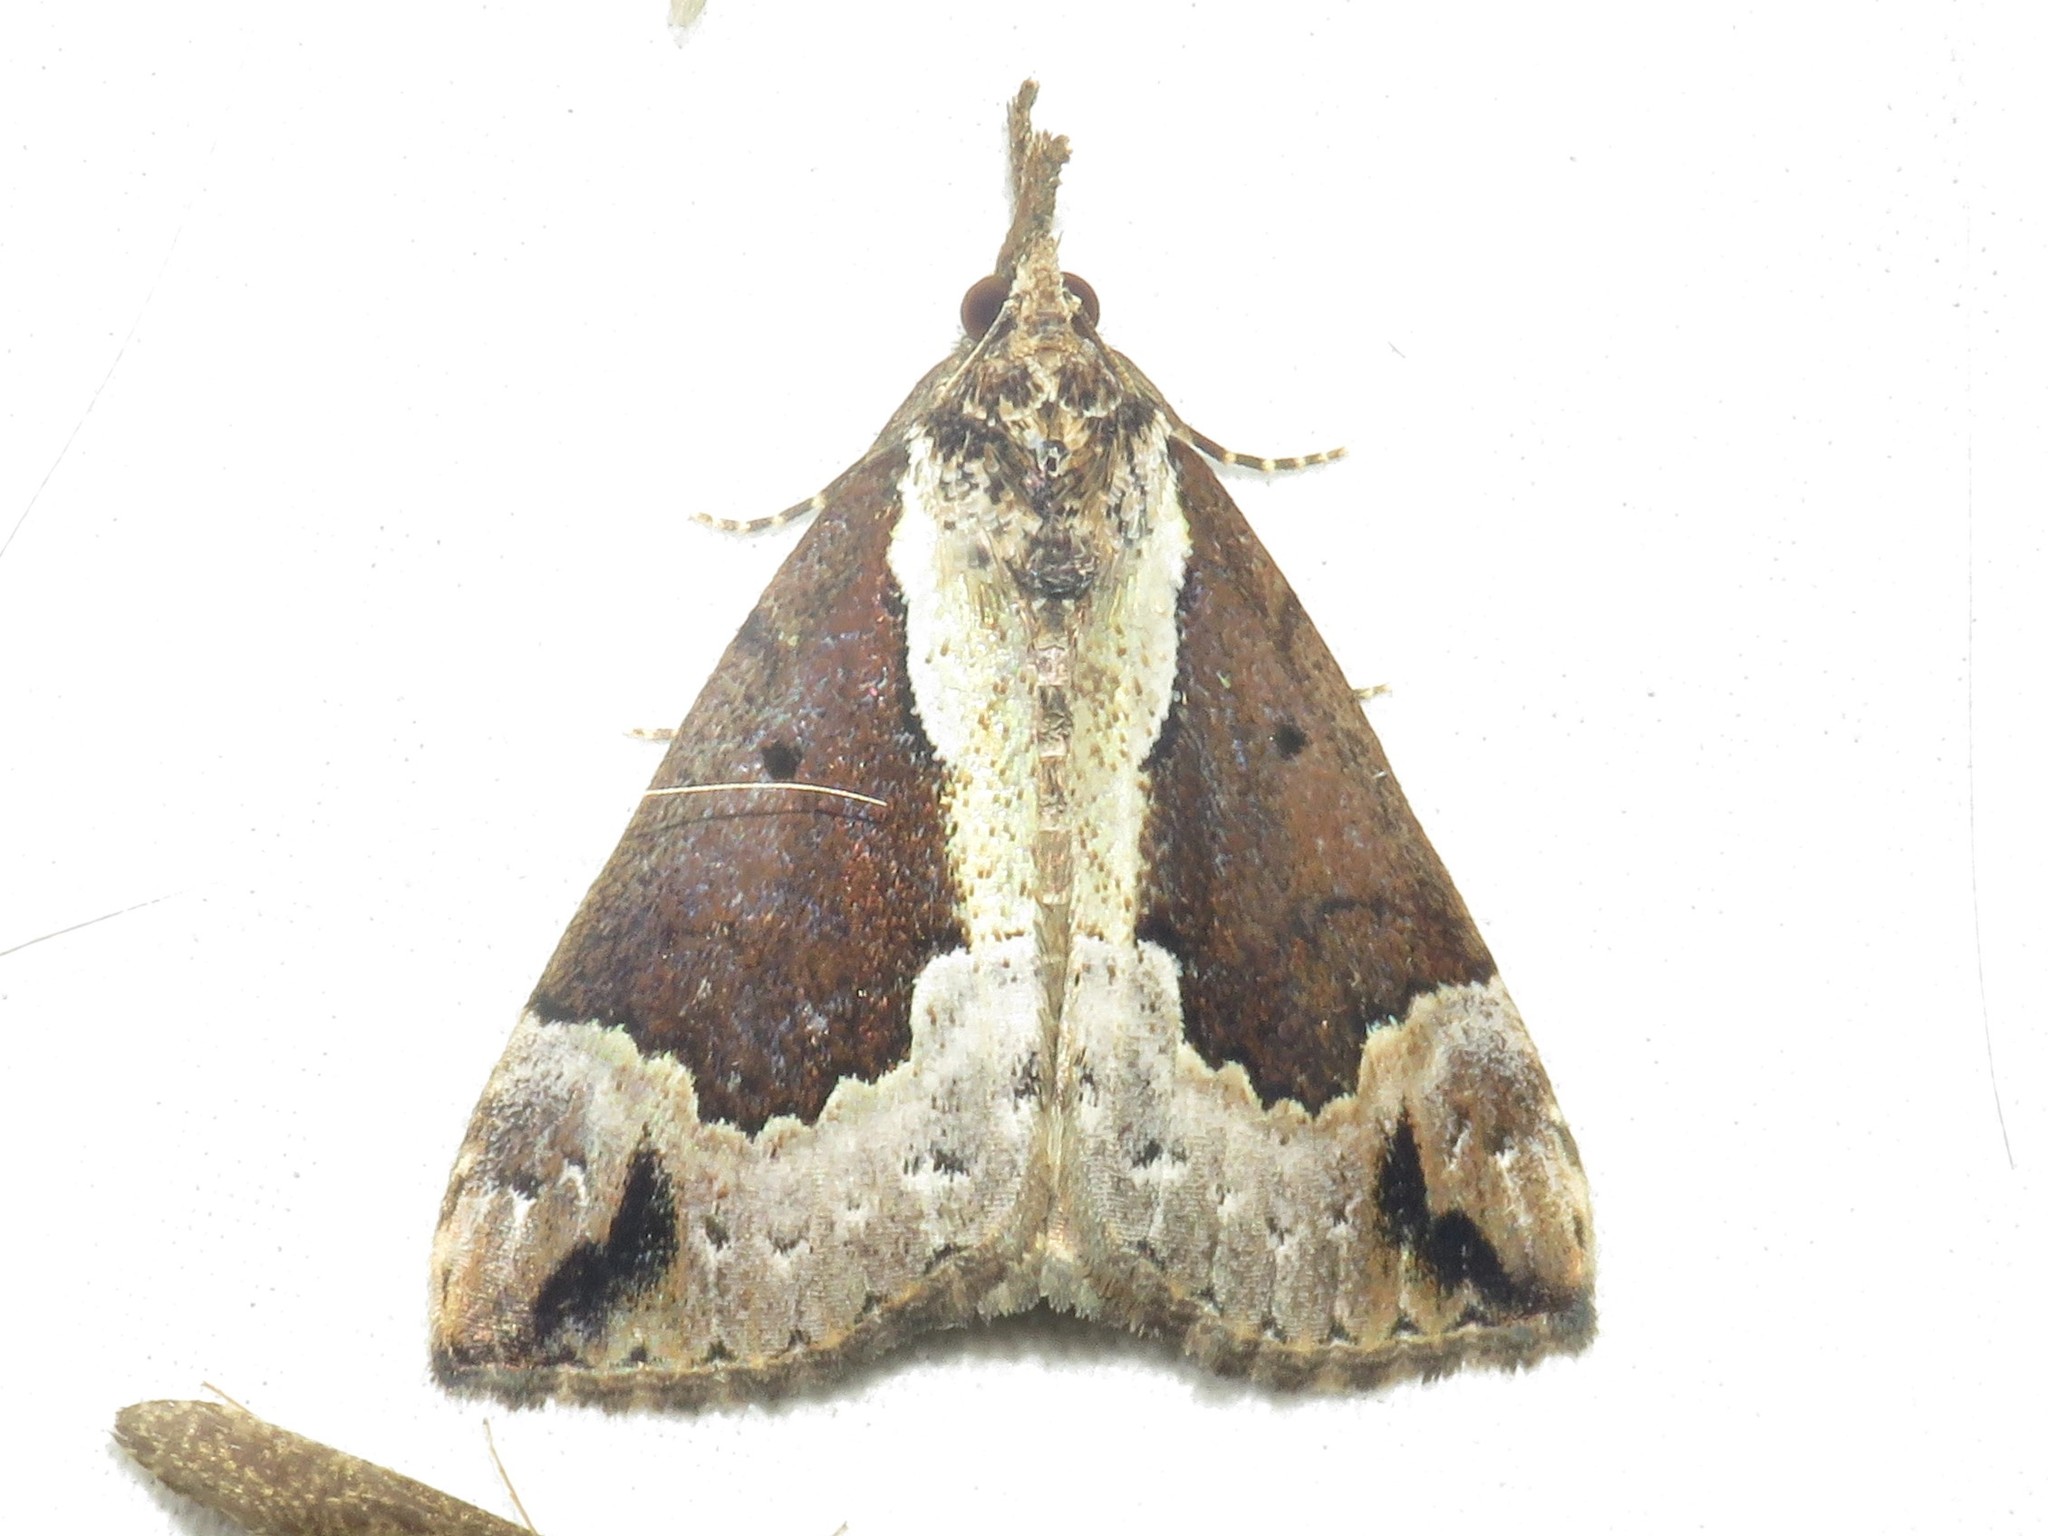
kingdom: Animalia
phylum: Arthropoda
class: Insecta
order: Lepidoptera
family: Erebidae
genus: Hypena
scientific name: Hypena baltimoralis
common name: Baltimore snout
